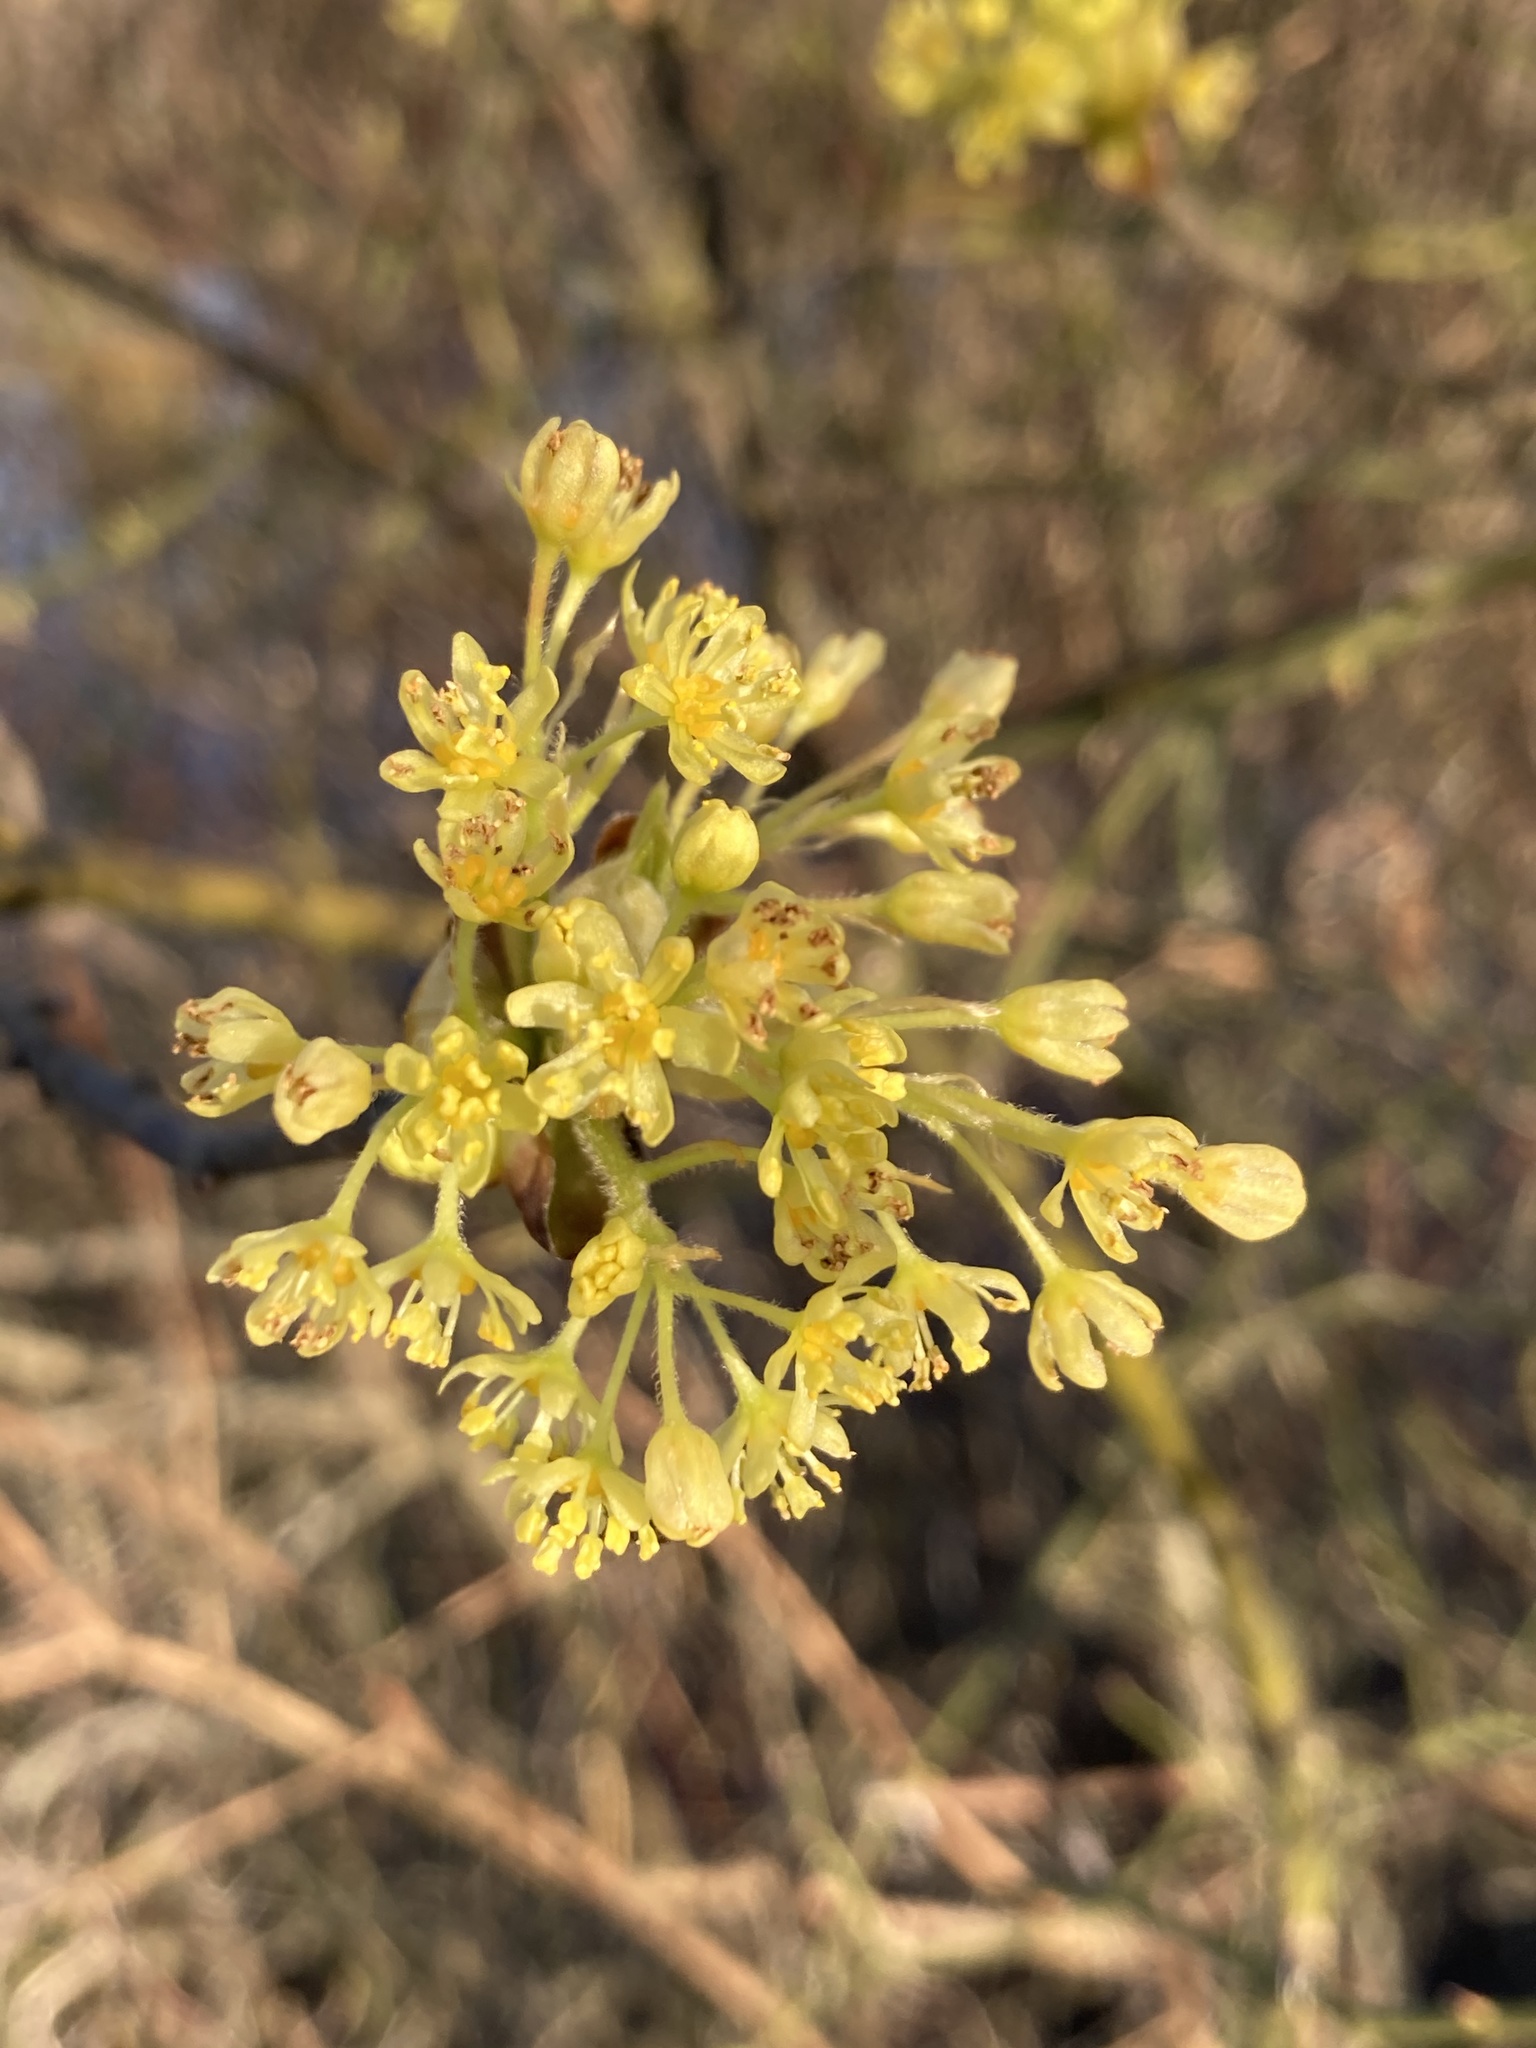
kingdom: Plantae
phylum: Tracheophyta
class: Magnoliopsida
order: Laurales
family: Lauraceae
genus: Sassafras
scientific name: Sassafras albidum
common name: Sassafras
